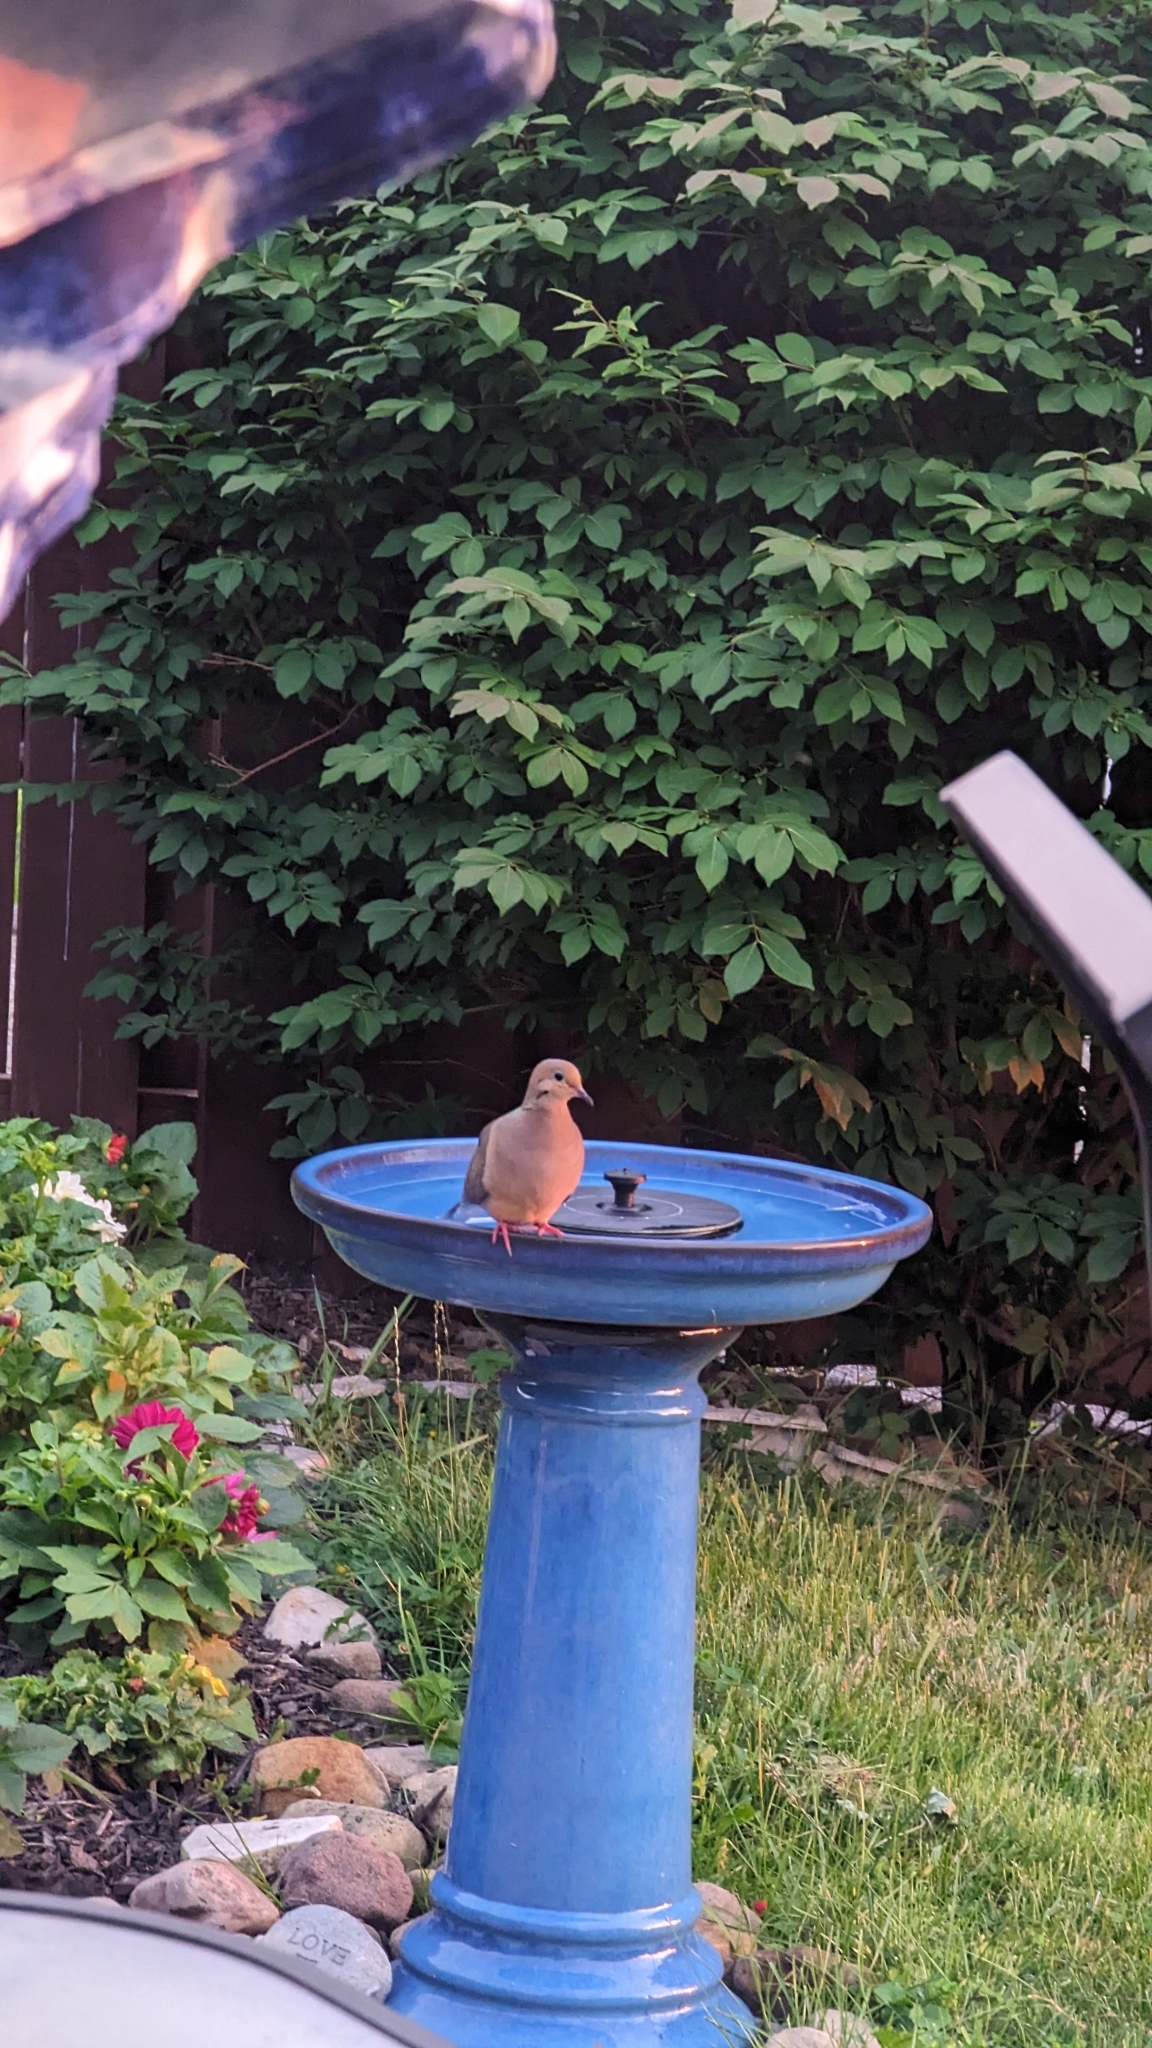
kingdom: Animalia
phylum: Chordata
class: Aves
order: Columbiformes
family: Columbidae
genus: Zenaida
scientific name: Zenaida macroura
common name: Mourning dove
